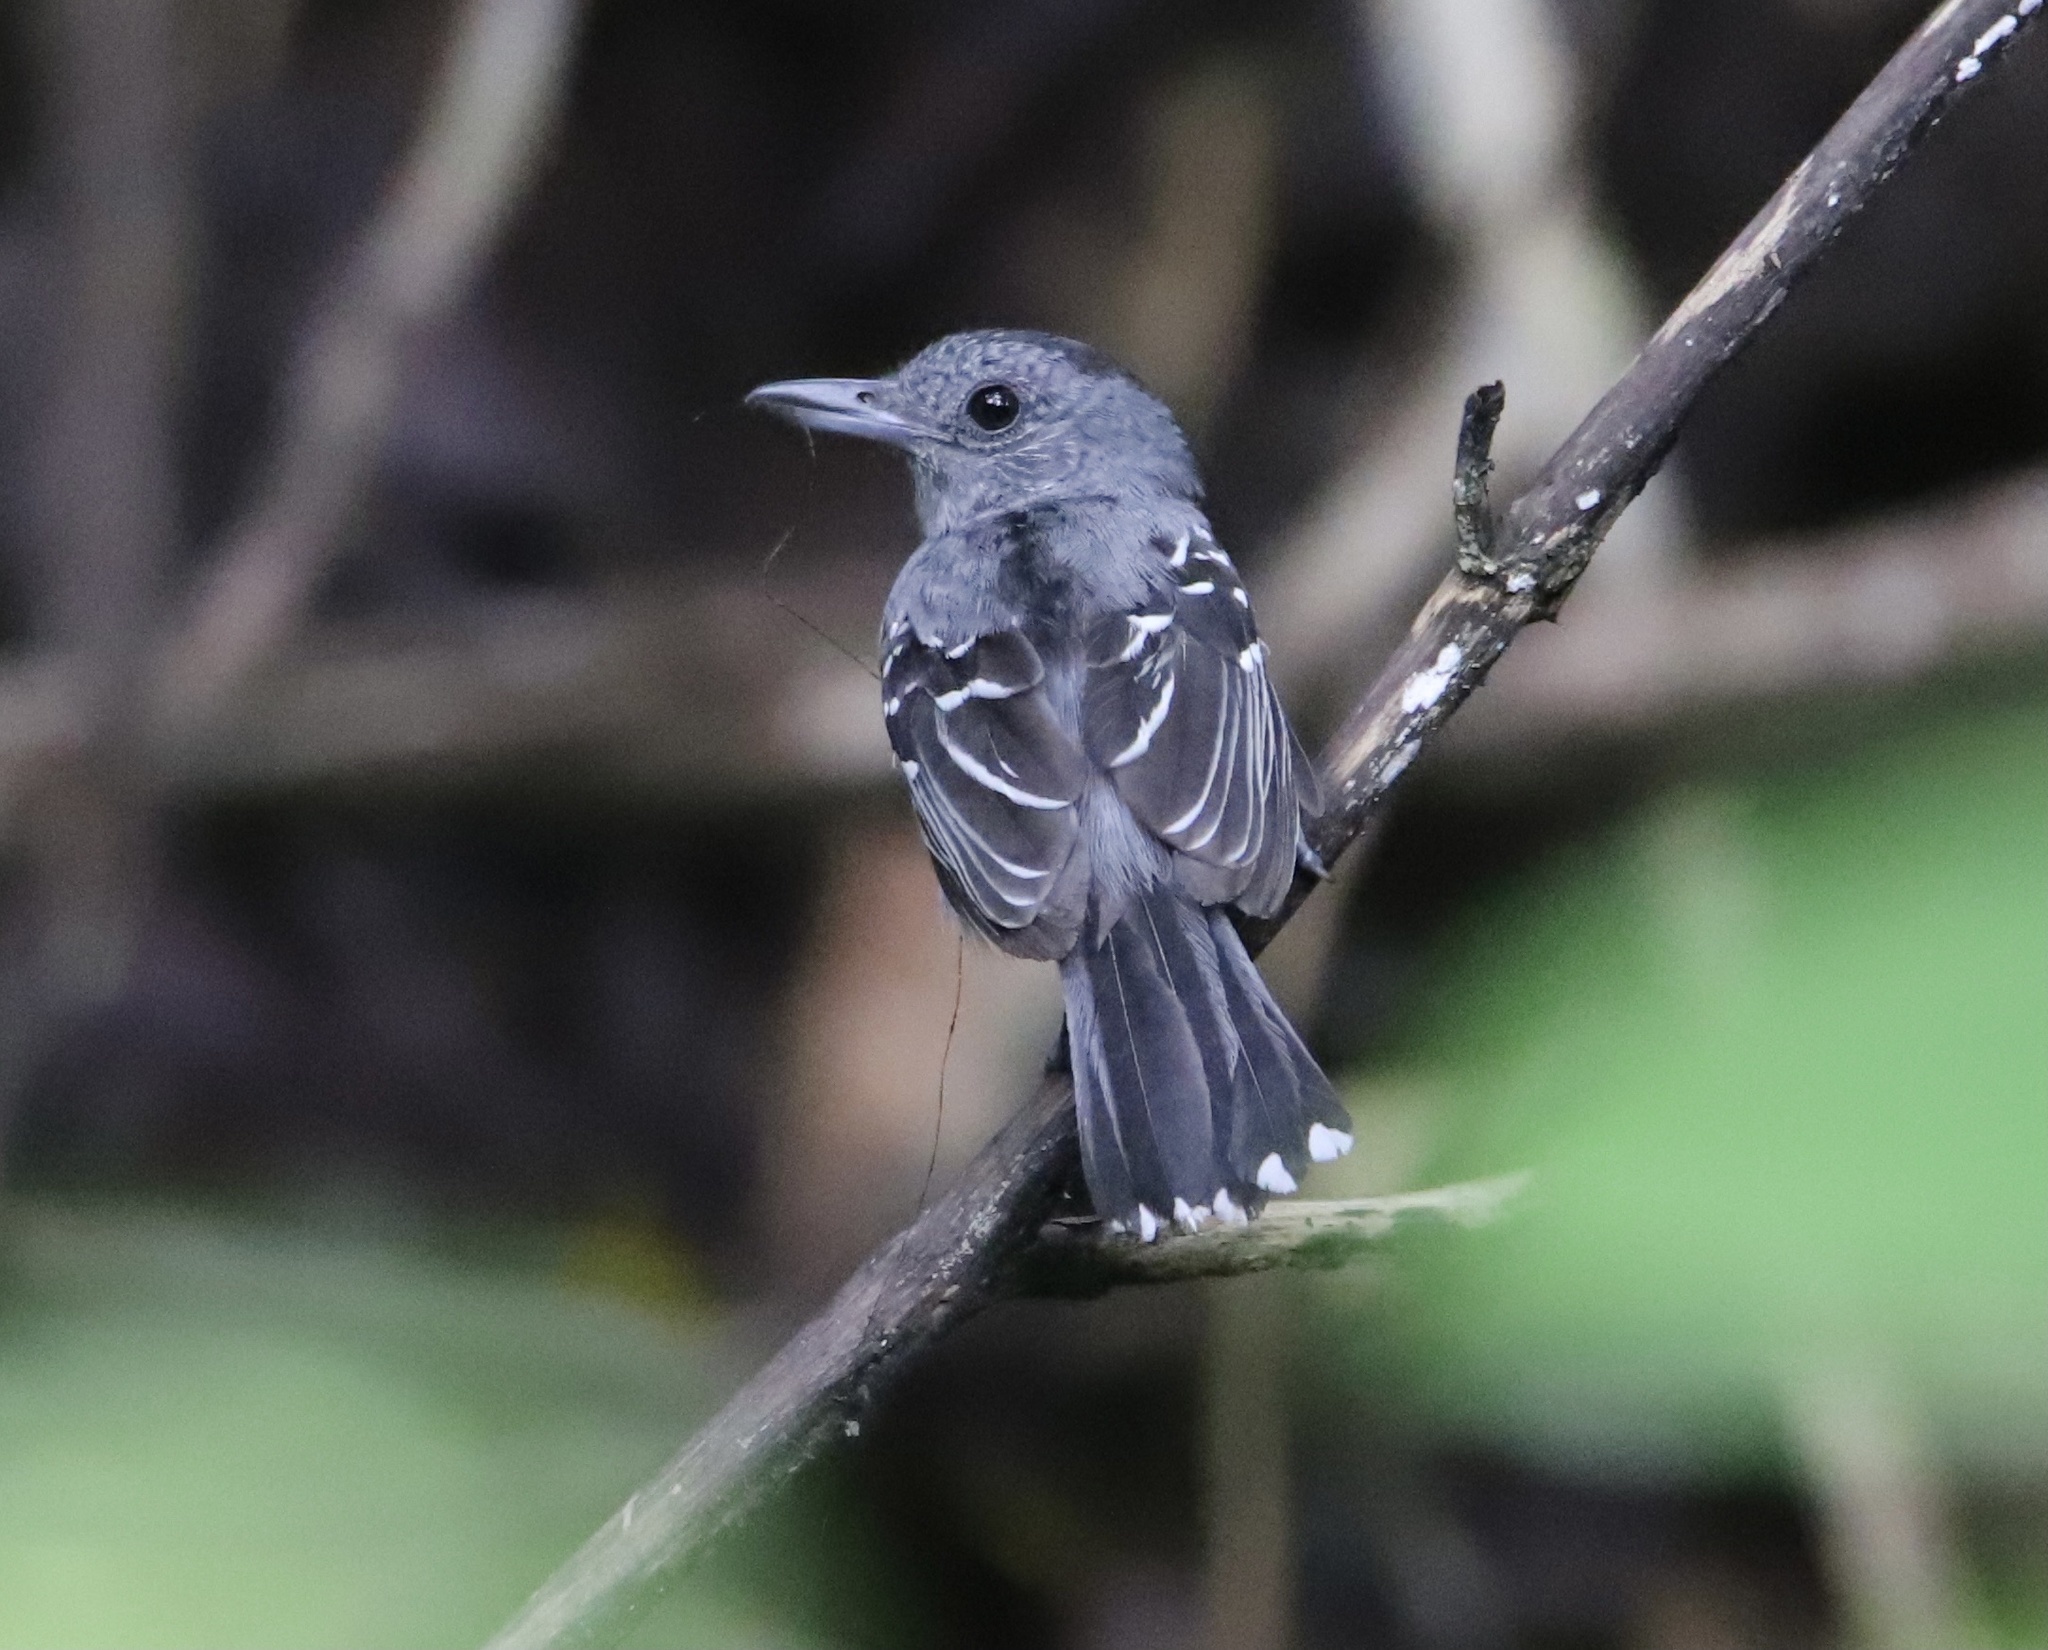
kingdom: Animalia
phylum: Chordata
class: Aves
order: Passeriformes
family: Thamnophilidae
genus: Thamnophilus
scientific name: Thamnophilus atrinucha
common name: Black-crowned antshrike
